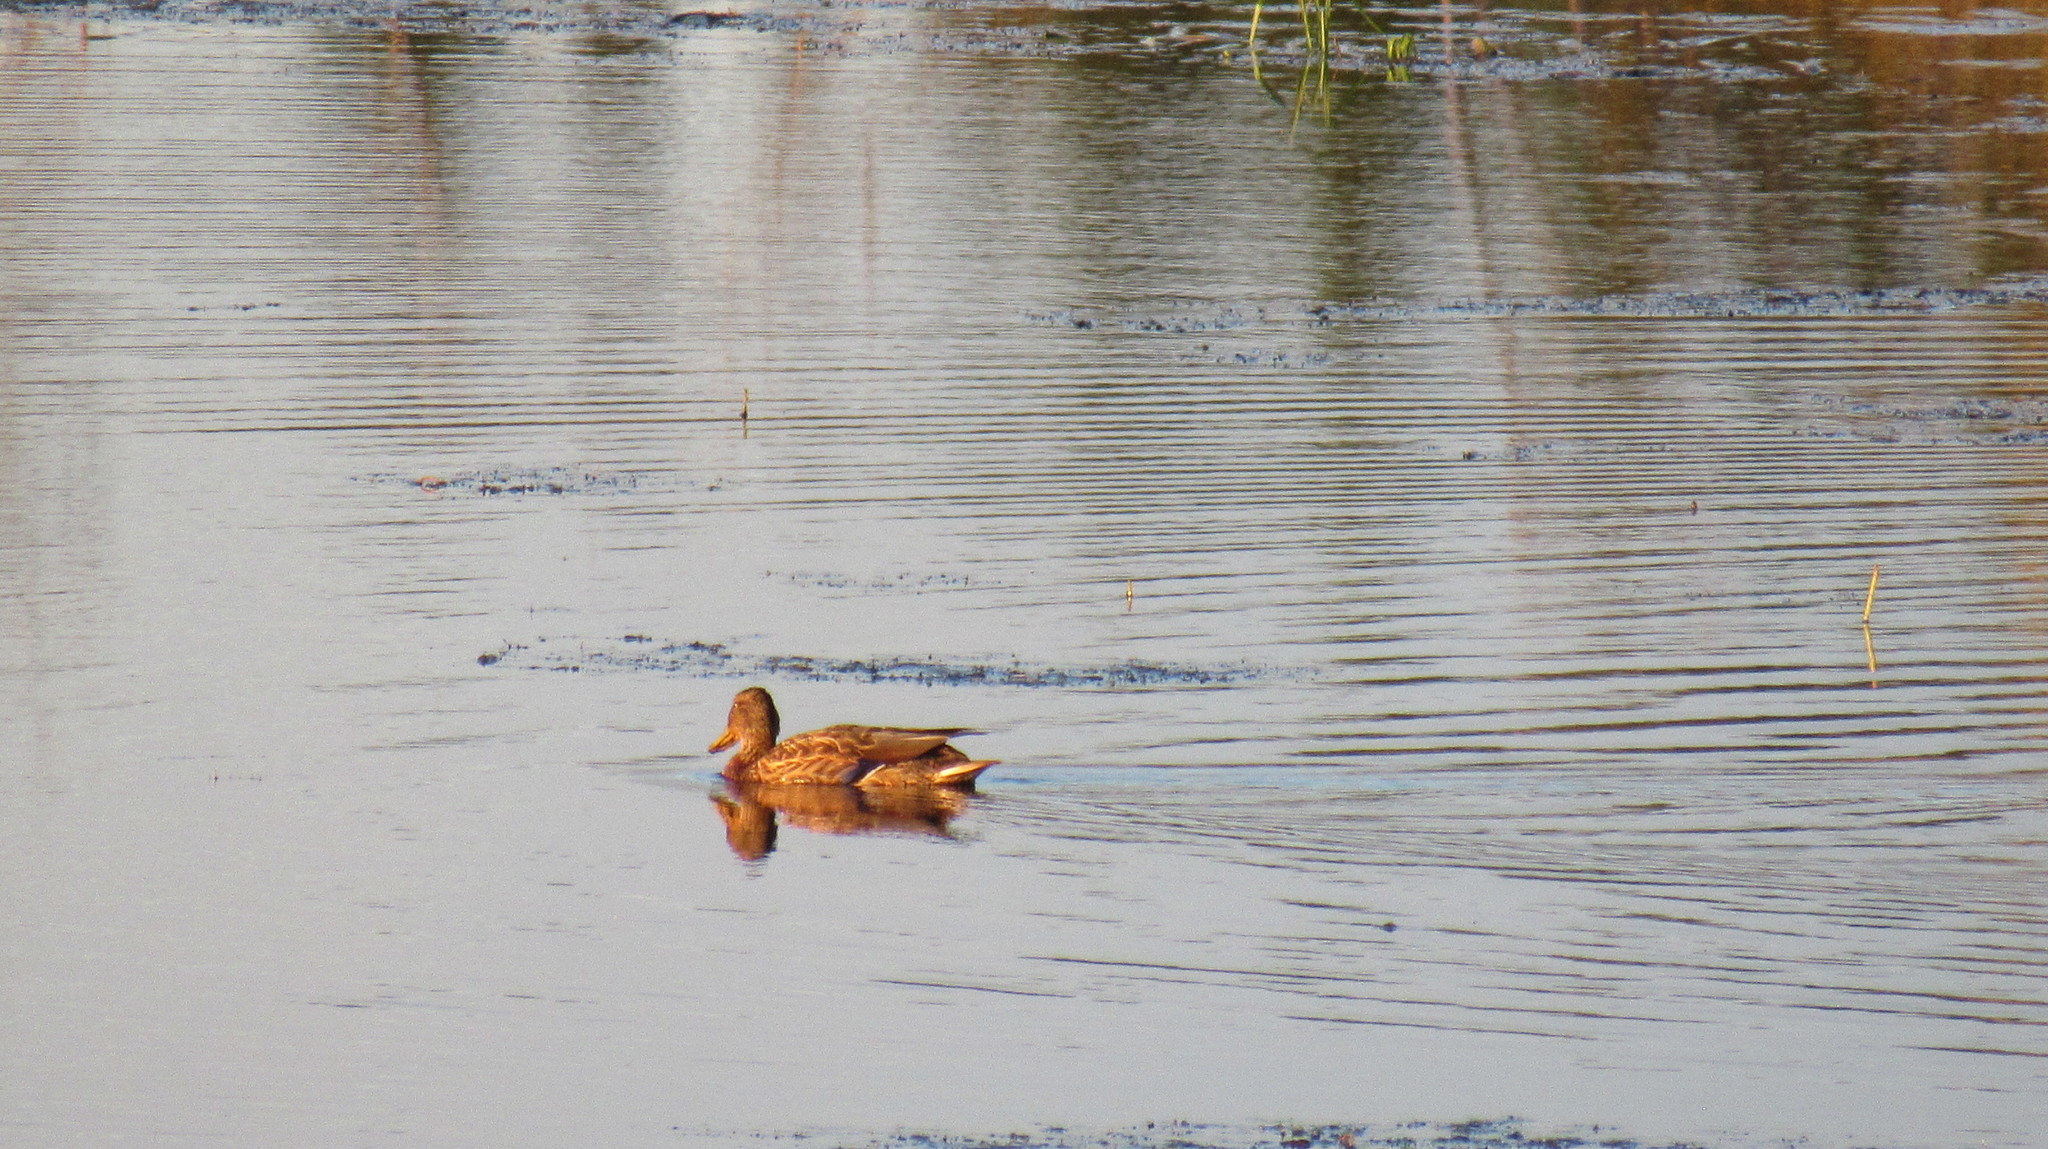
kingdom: Animalia
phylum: Chordata
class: Aves
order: Anseriformes
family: Anatidae
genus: Anas
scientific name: Anas platyrhynchos
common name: Mallard
